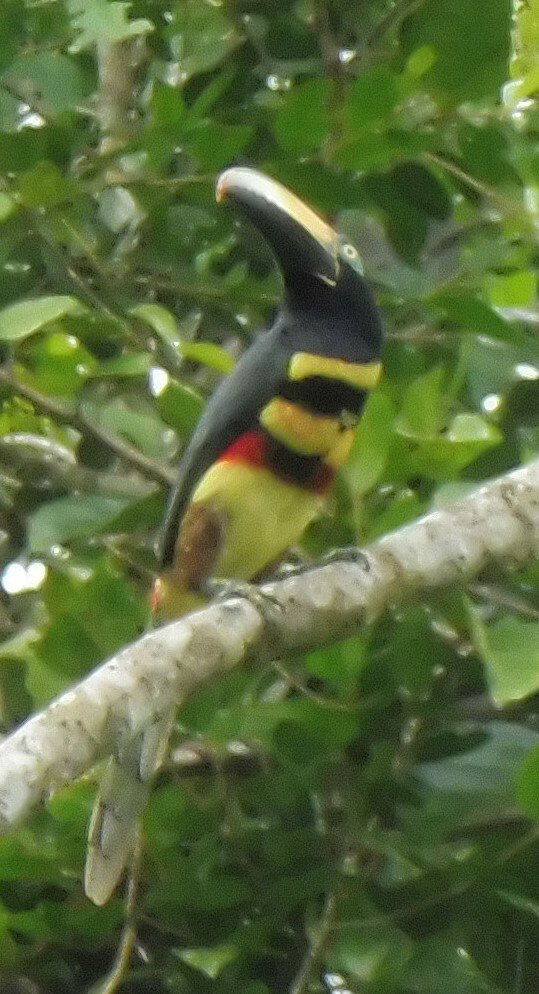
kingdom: Animalia
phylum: Chordata
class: Aves
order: Piciformes
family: Ramphastidae
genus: Pteroglossus
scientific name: Pteroglossus pluricinctus
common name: Many-banded aracari
